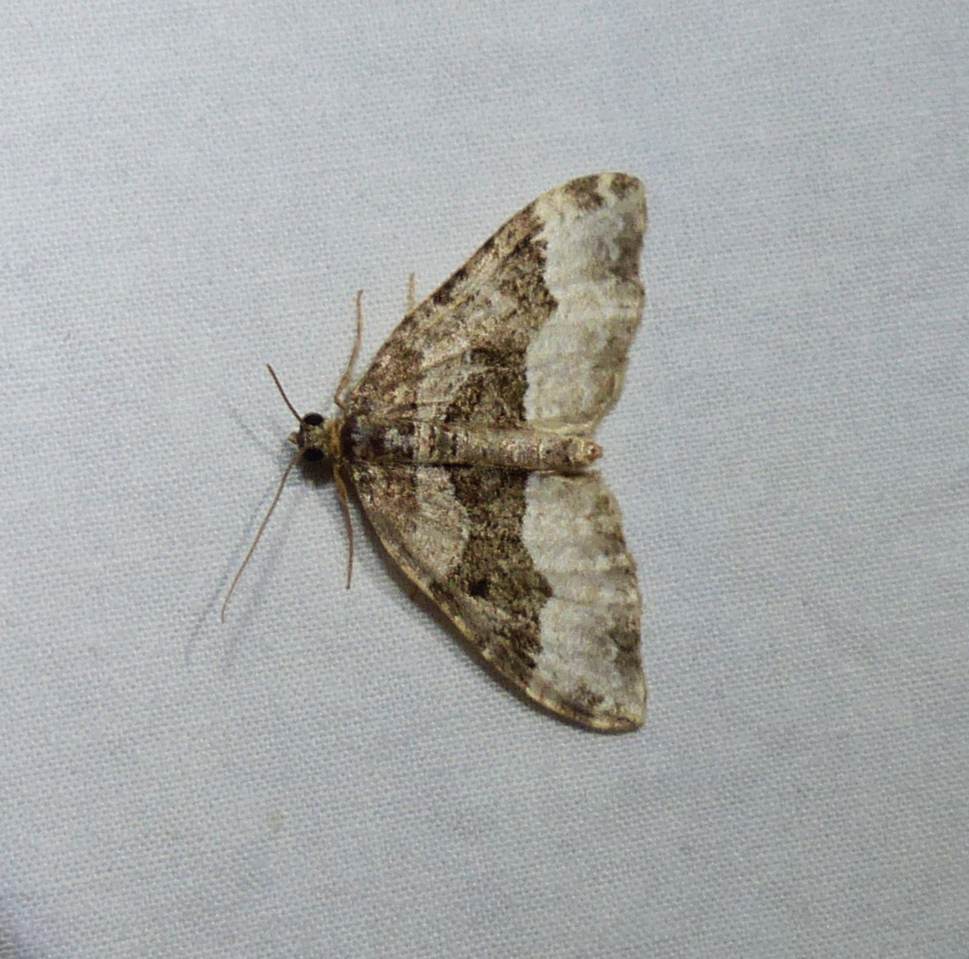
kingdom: Animalia
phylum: Arthropoda
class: Insecta
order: Lepidoptera
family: Geometridae
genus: Euphyia
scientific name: Euphyia intermediata
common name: Sharp-angled carpet
